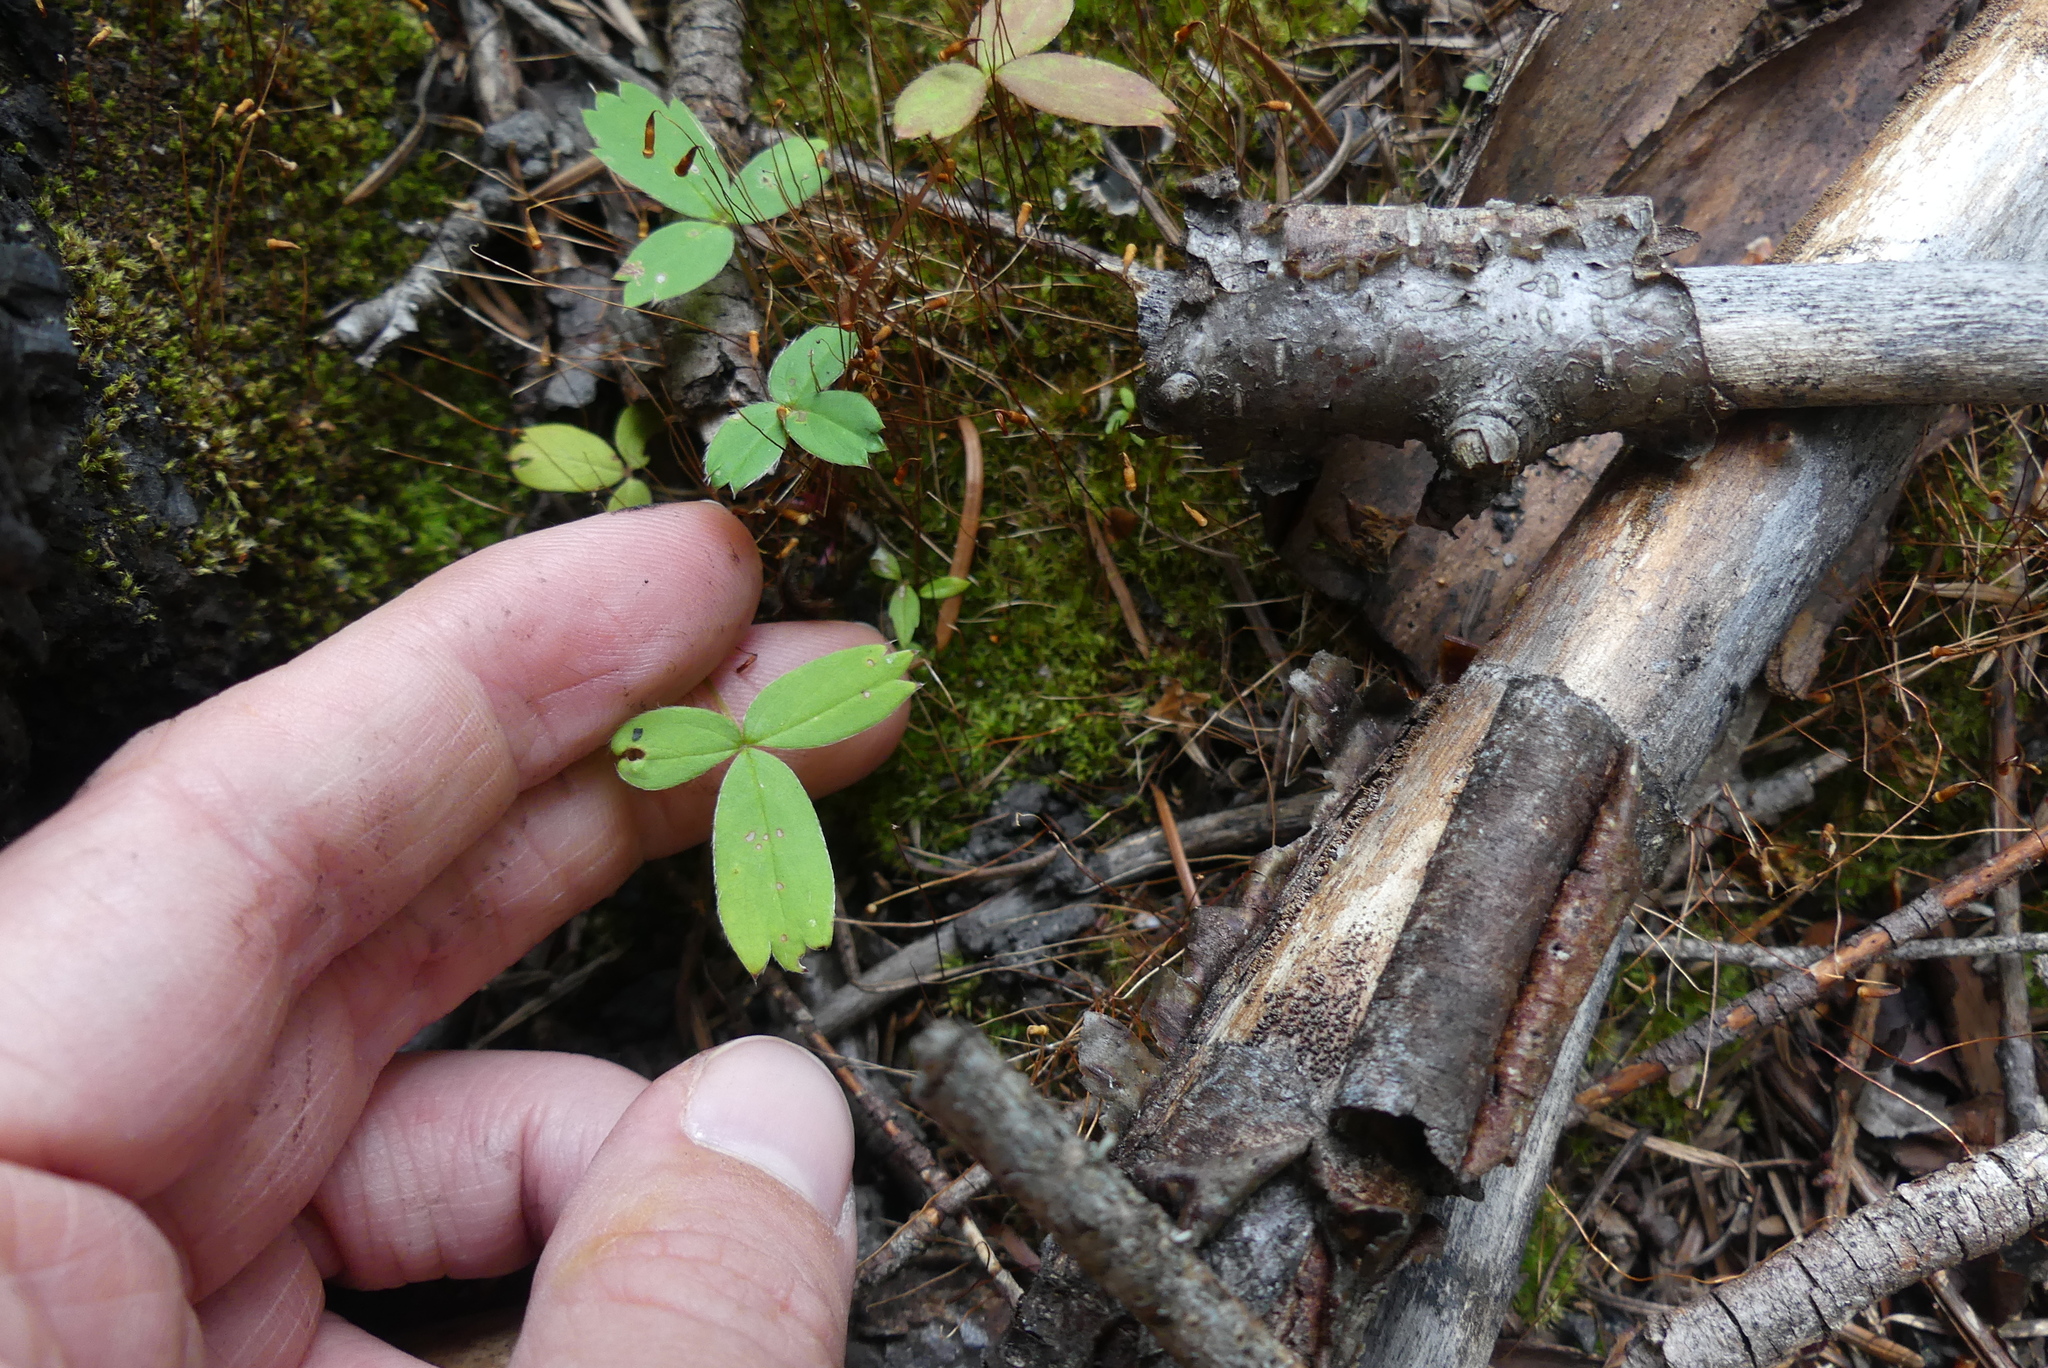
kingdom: Plantae
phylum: Tracheophyta
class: Magnoliopsida
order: Rosales
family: Rosaceae
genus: Fragaria
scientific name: Fragaria virginiana
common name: Thickleaved wild strawberry
